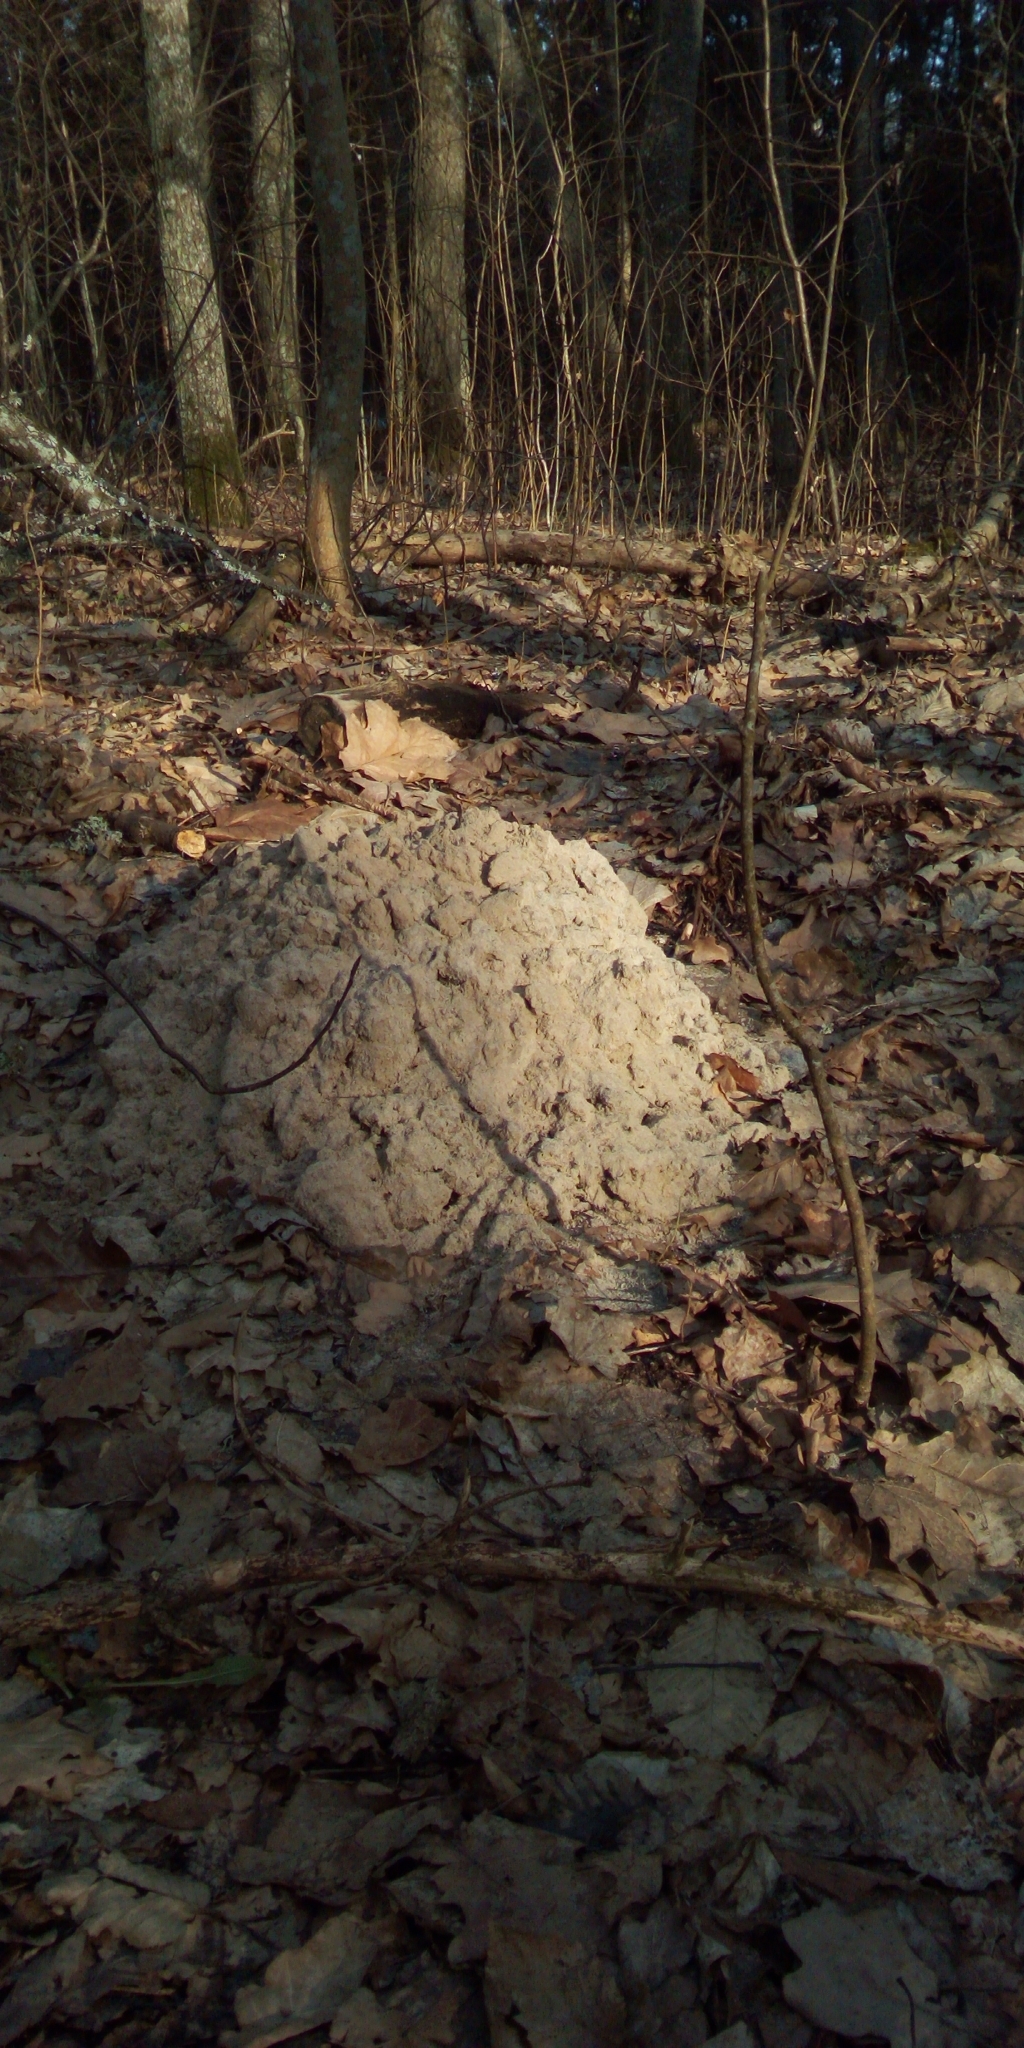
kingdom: Animalia
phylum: Chordata
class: Mammalia
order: Soricomorpha
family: Talpidae
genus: Talpa
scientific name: Talpa europaea
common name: European mole
